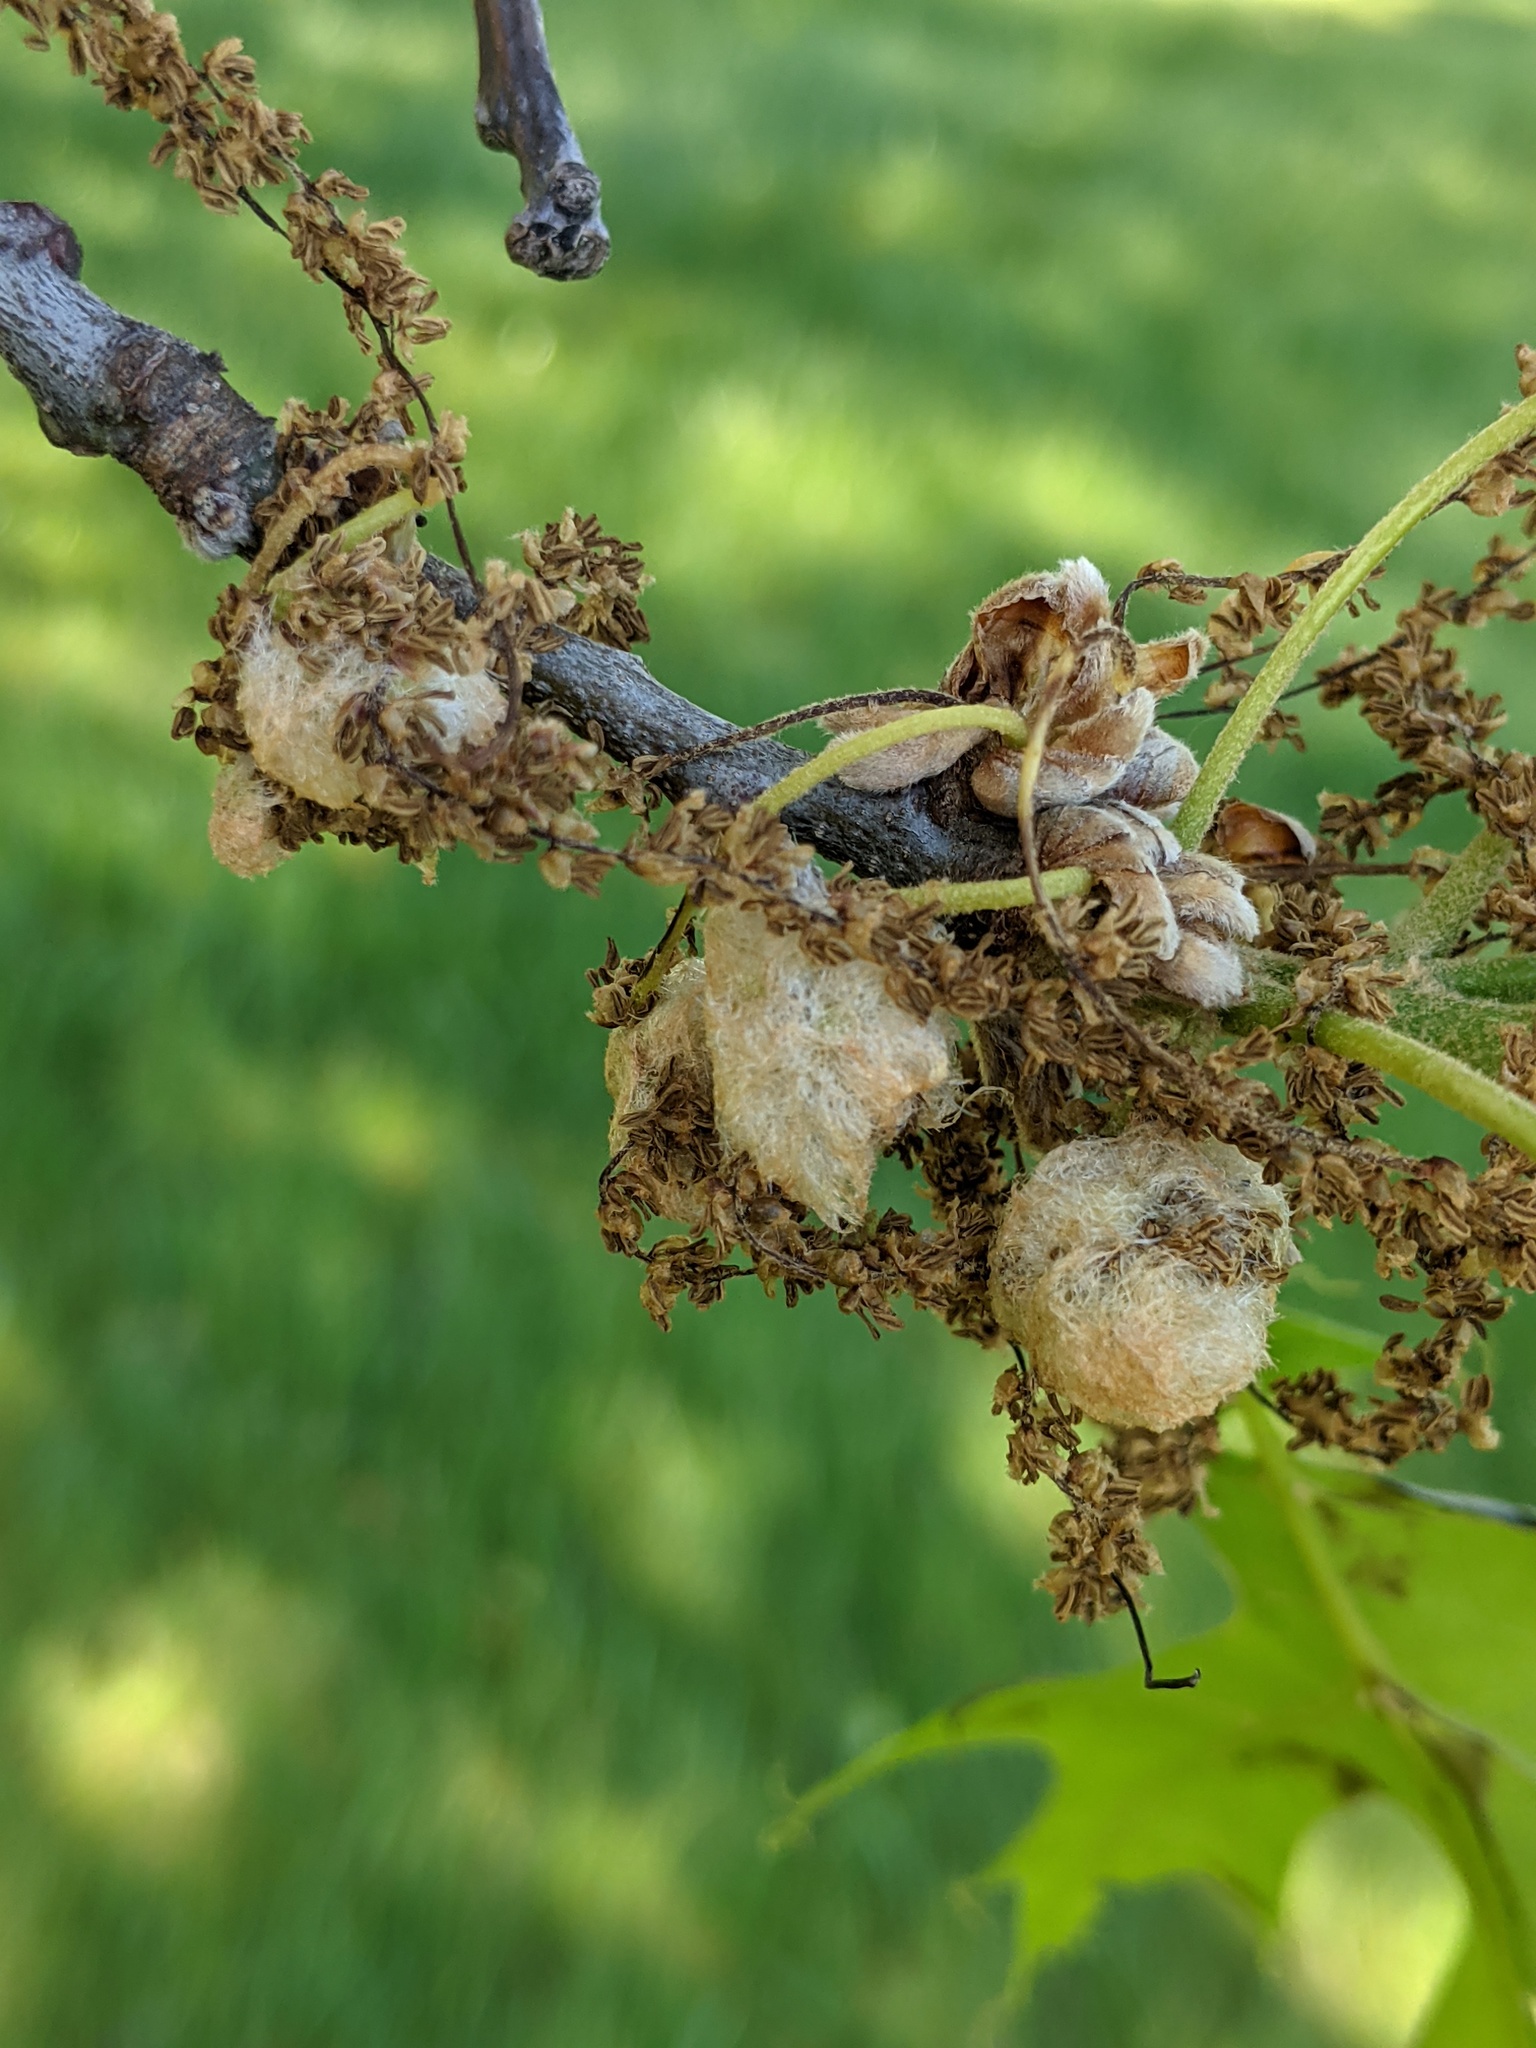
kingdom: Animalia
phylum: Arthropoda
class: Insecta
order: Hymenoptera
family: Cynipidae
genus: Callirhytis
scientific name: Callirhytis
